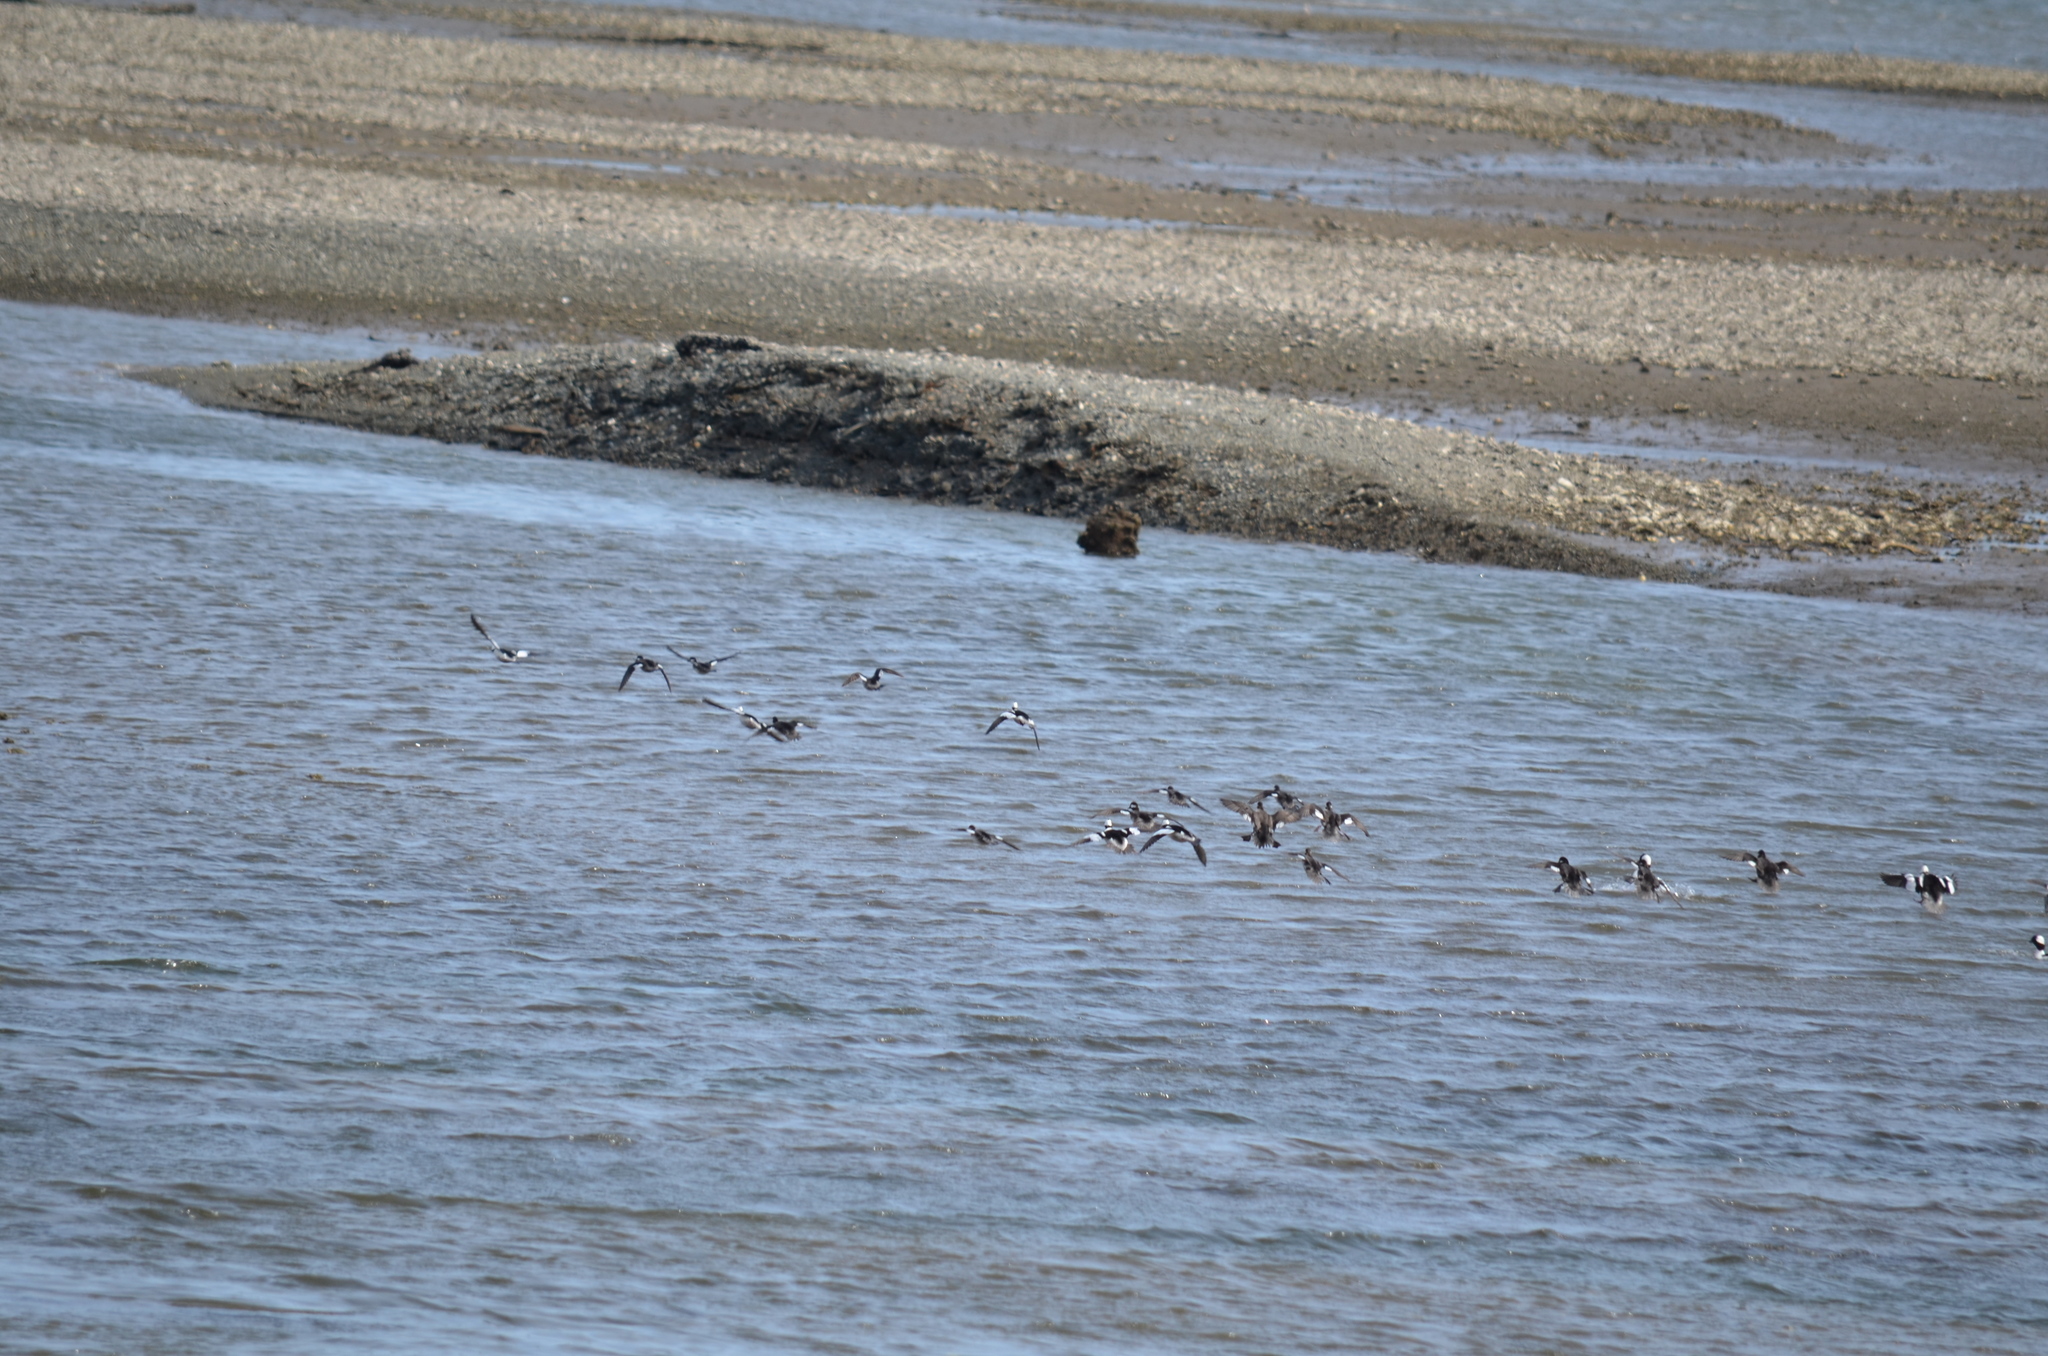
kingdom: Animalia
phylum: Chordata
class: Aves
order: Anseriformes
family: Anatidae
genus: Bucephala
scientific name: Bucephala albeola
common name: Bufflehead
